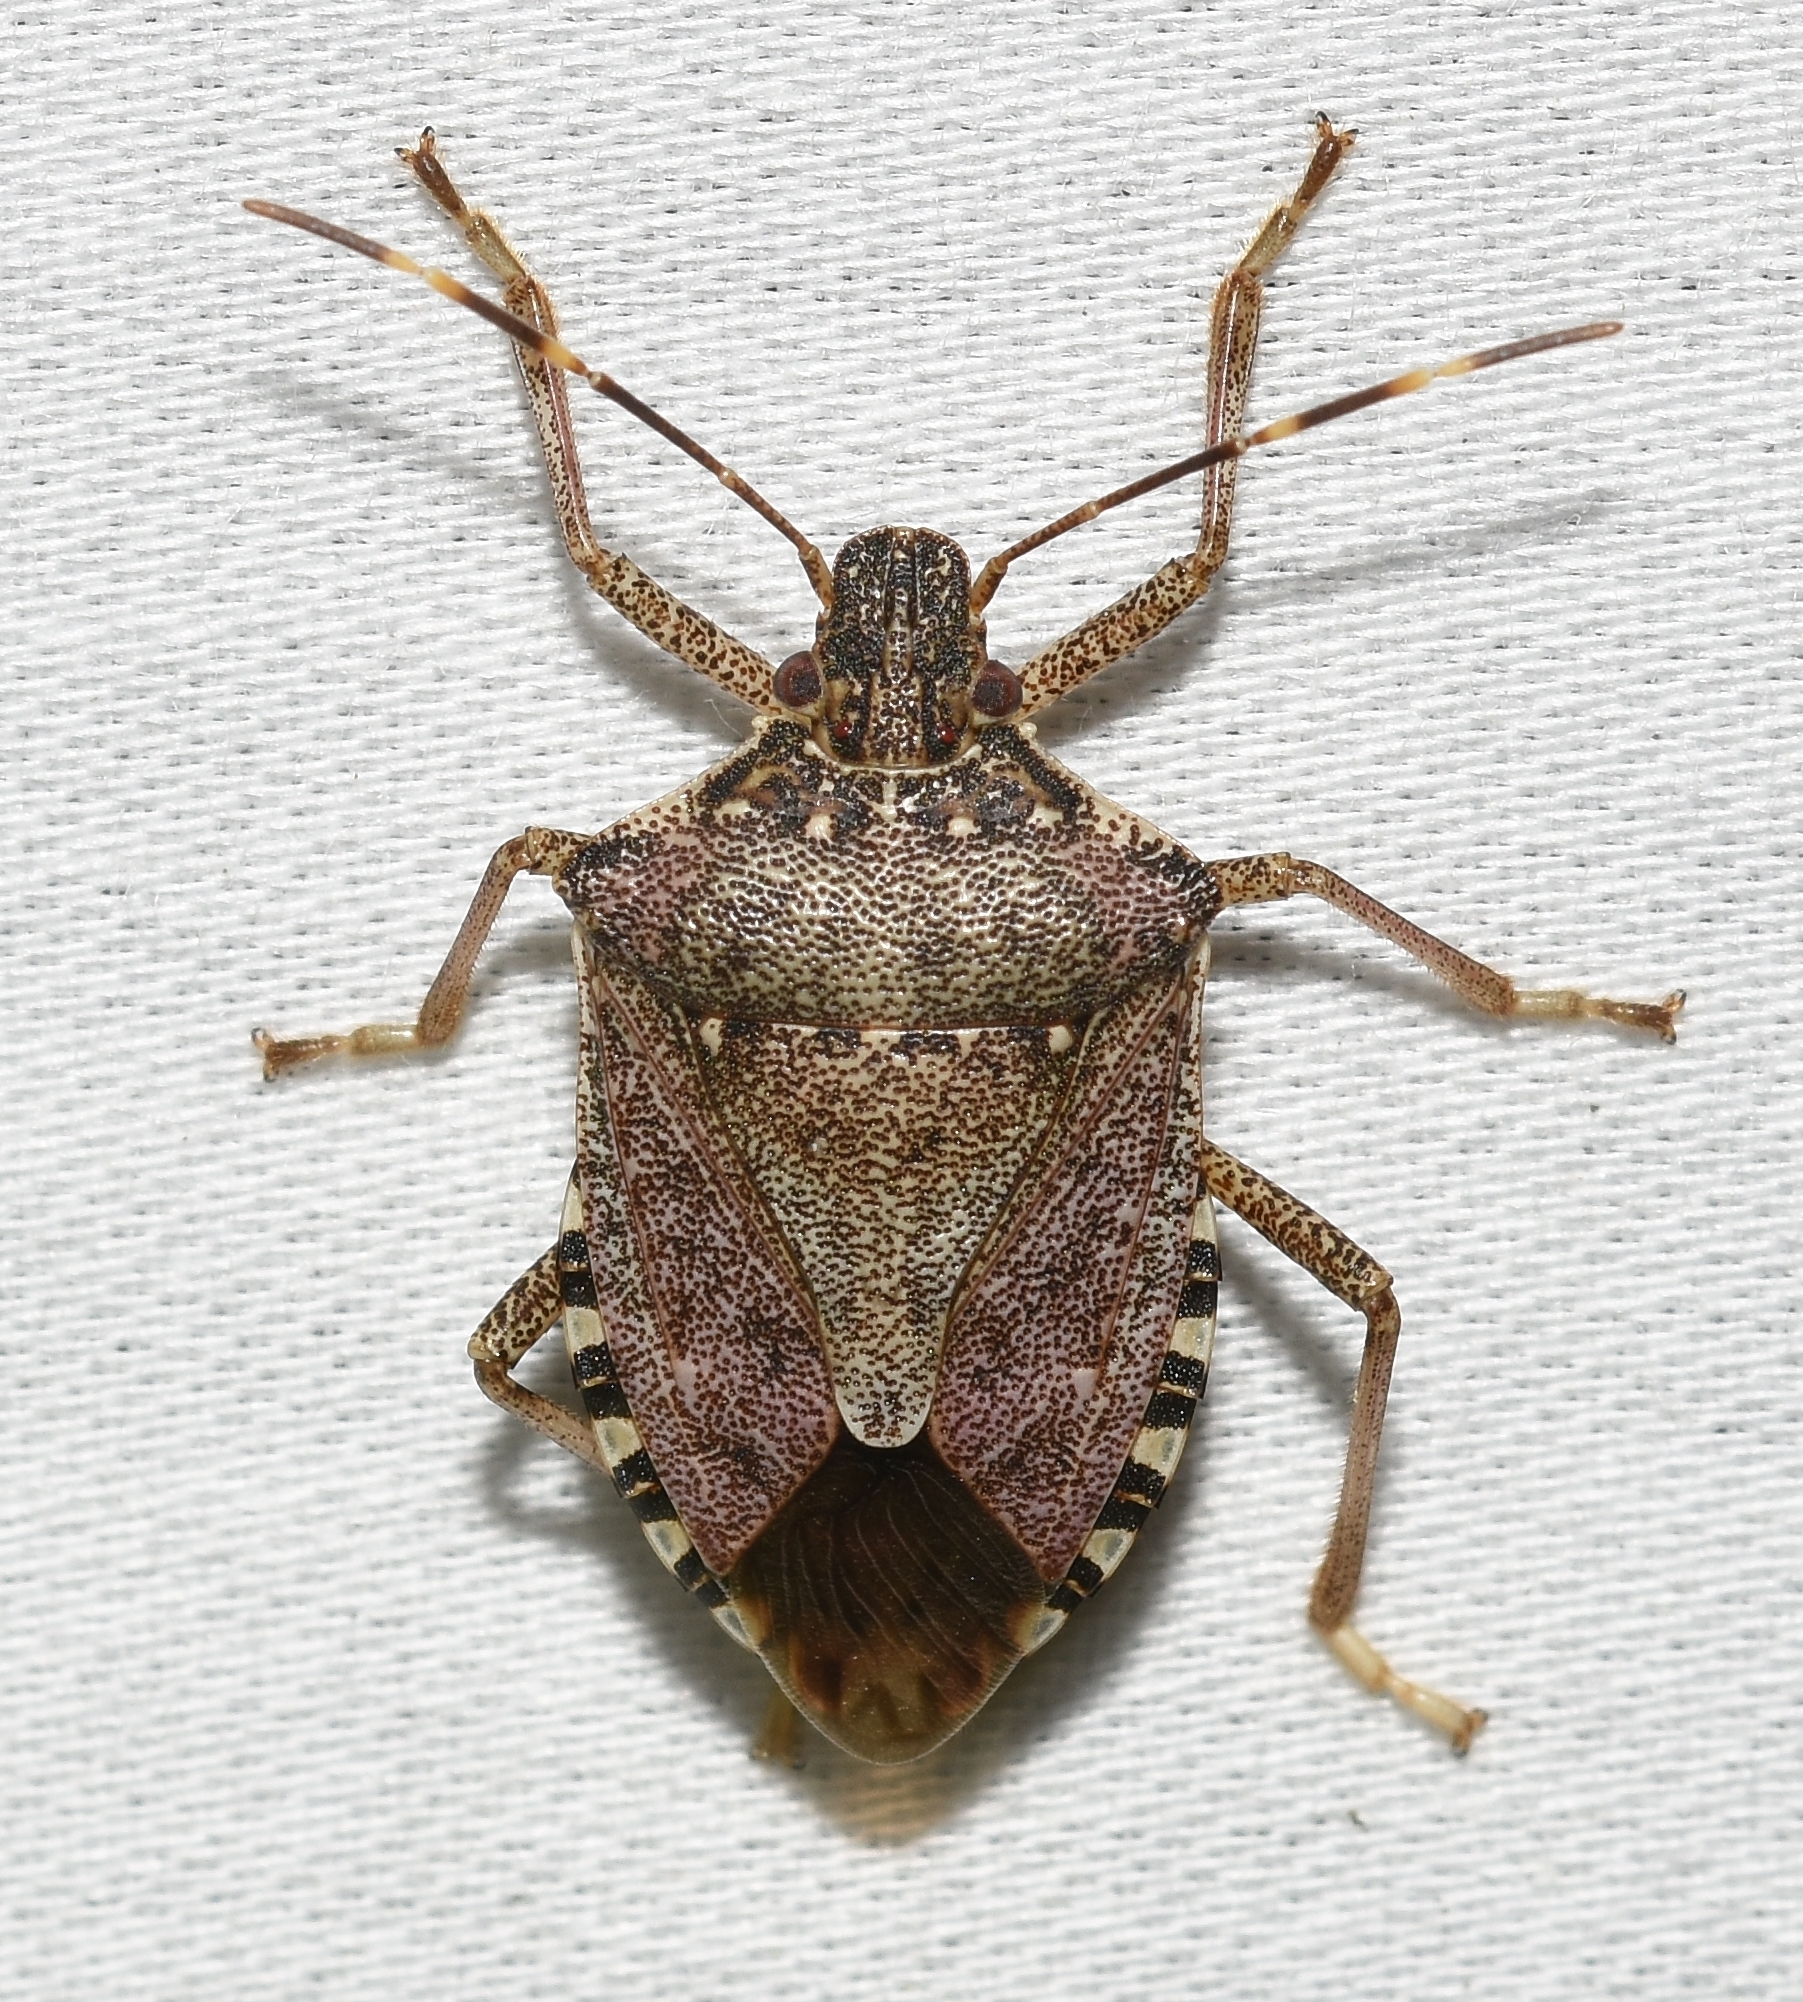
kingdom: Animalia
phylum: Arthropoda
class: Insecta
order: Hemiptera
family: Pentatomidae
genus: Halyomorpha
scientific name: Halyomorpha halys
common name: Brown marmorated stink bug
